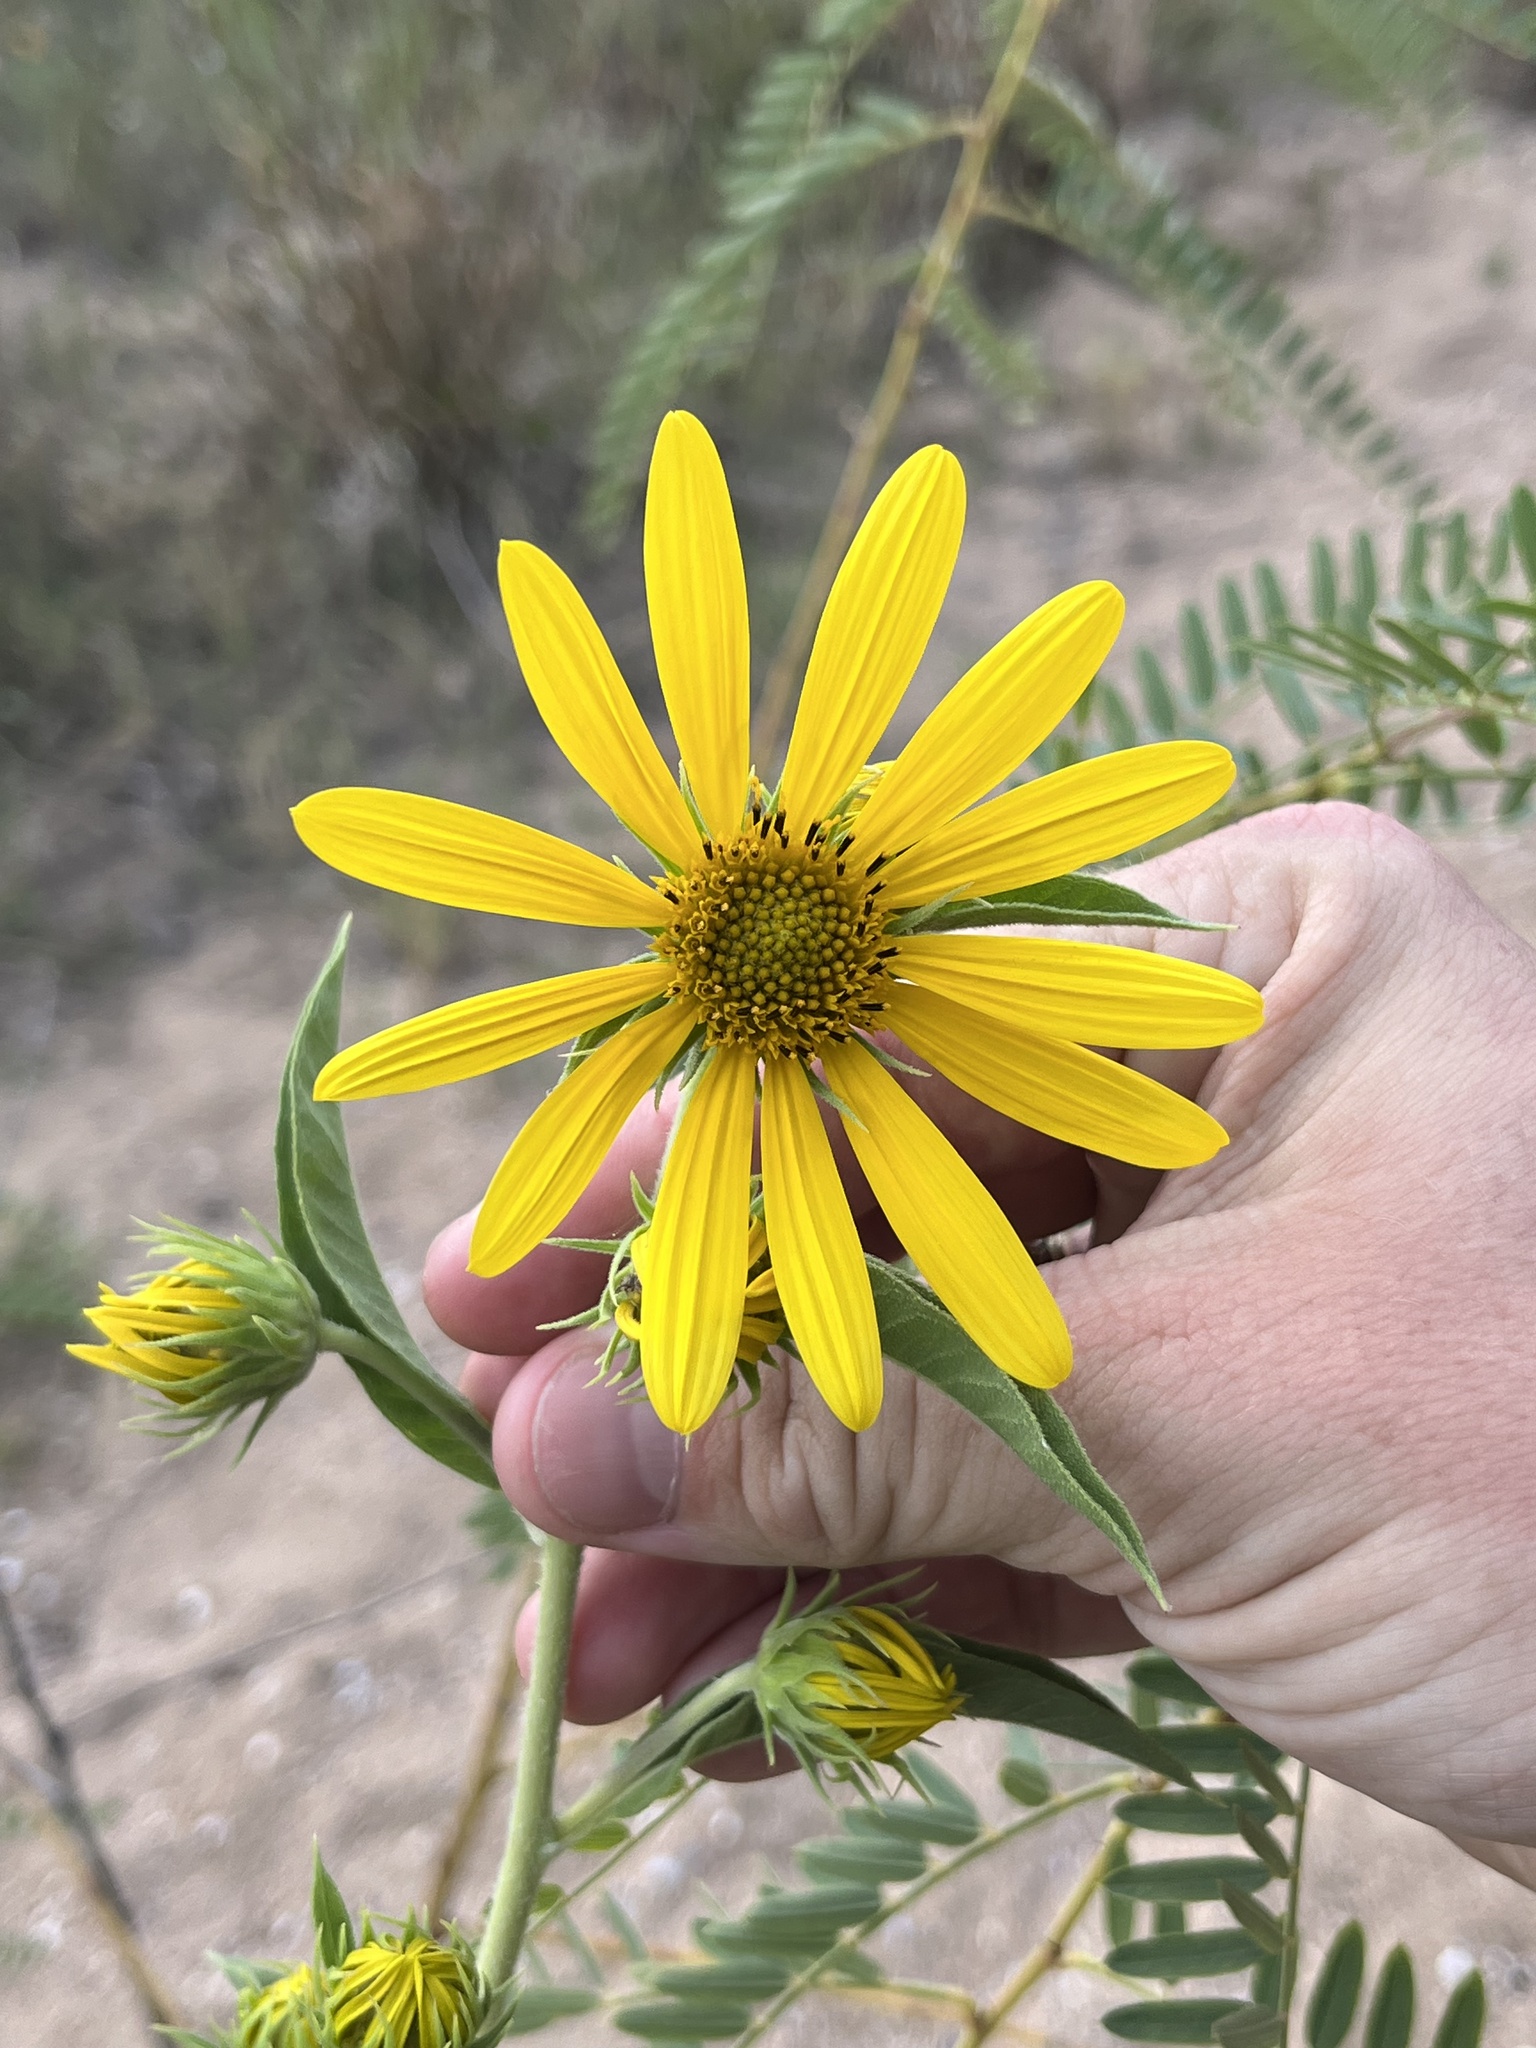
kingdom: Plantae
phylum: Tracheophyta
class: Magnoliopsida
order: Asterales
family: Asteraceae
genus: Helianthus
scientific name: Helianthus maximiliani
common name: Maximilian's sunflower
